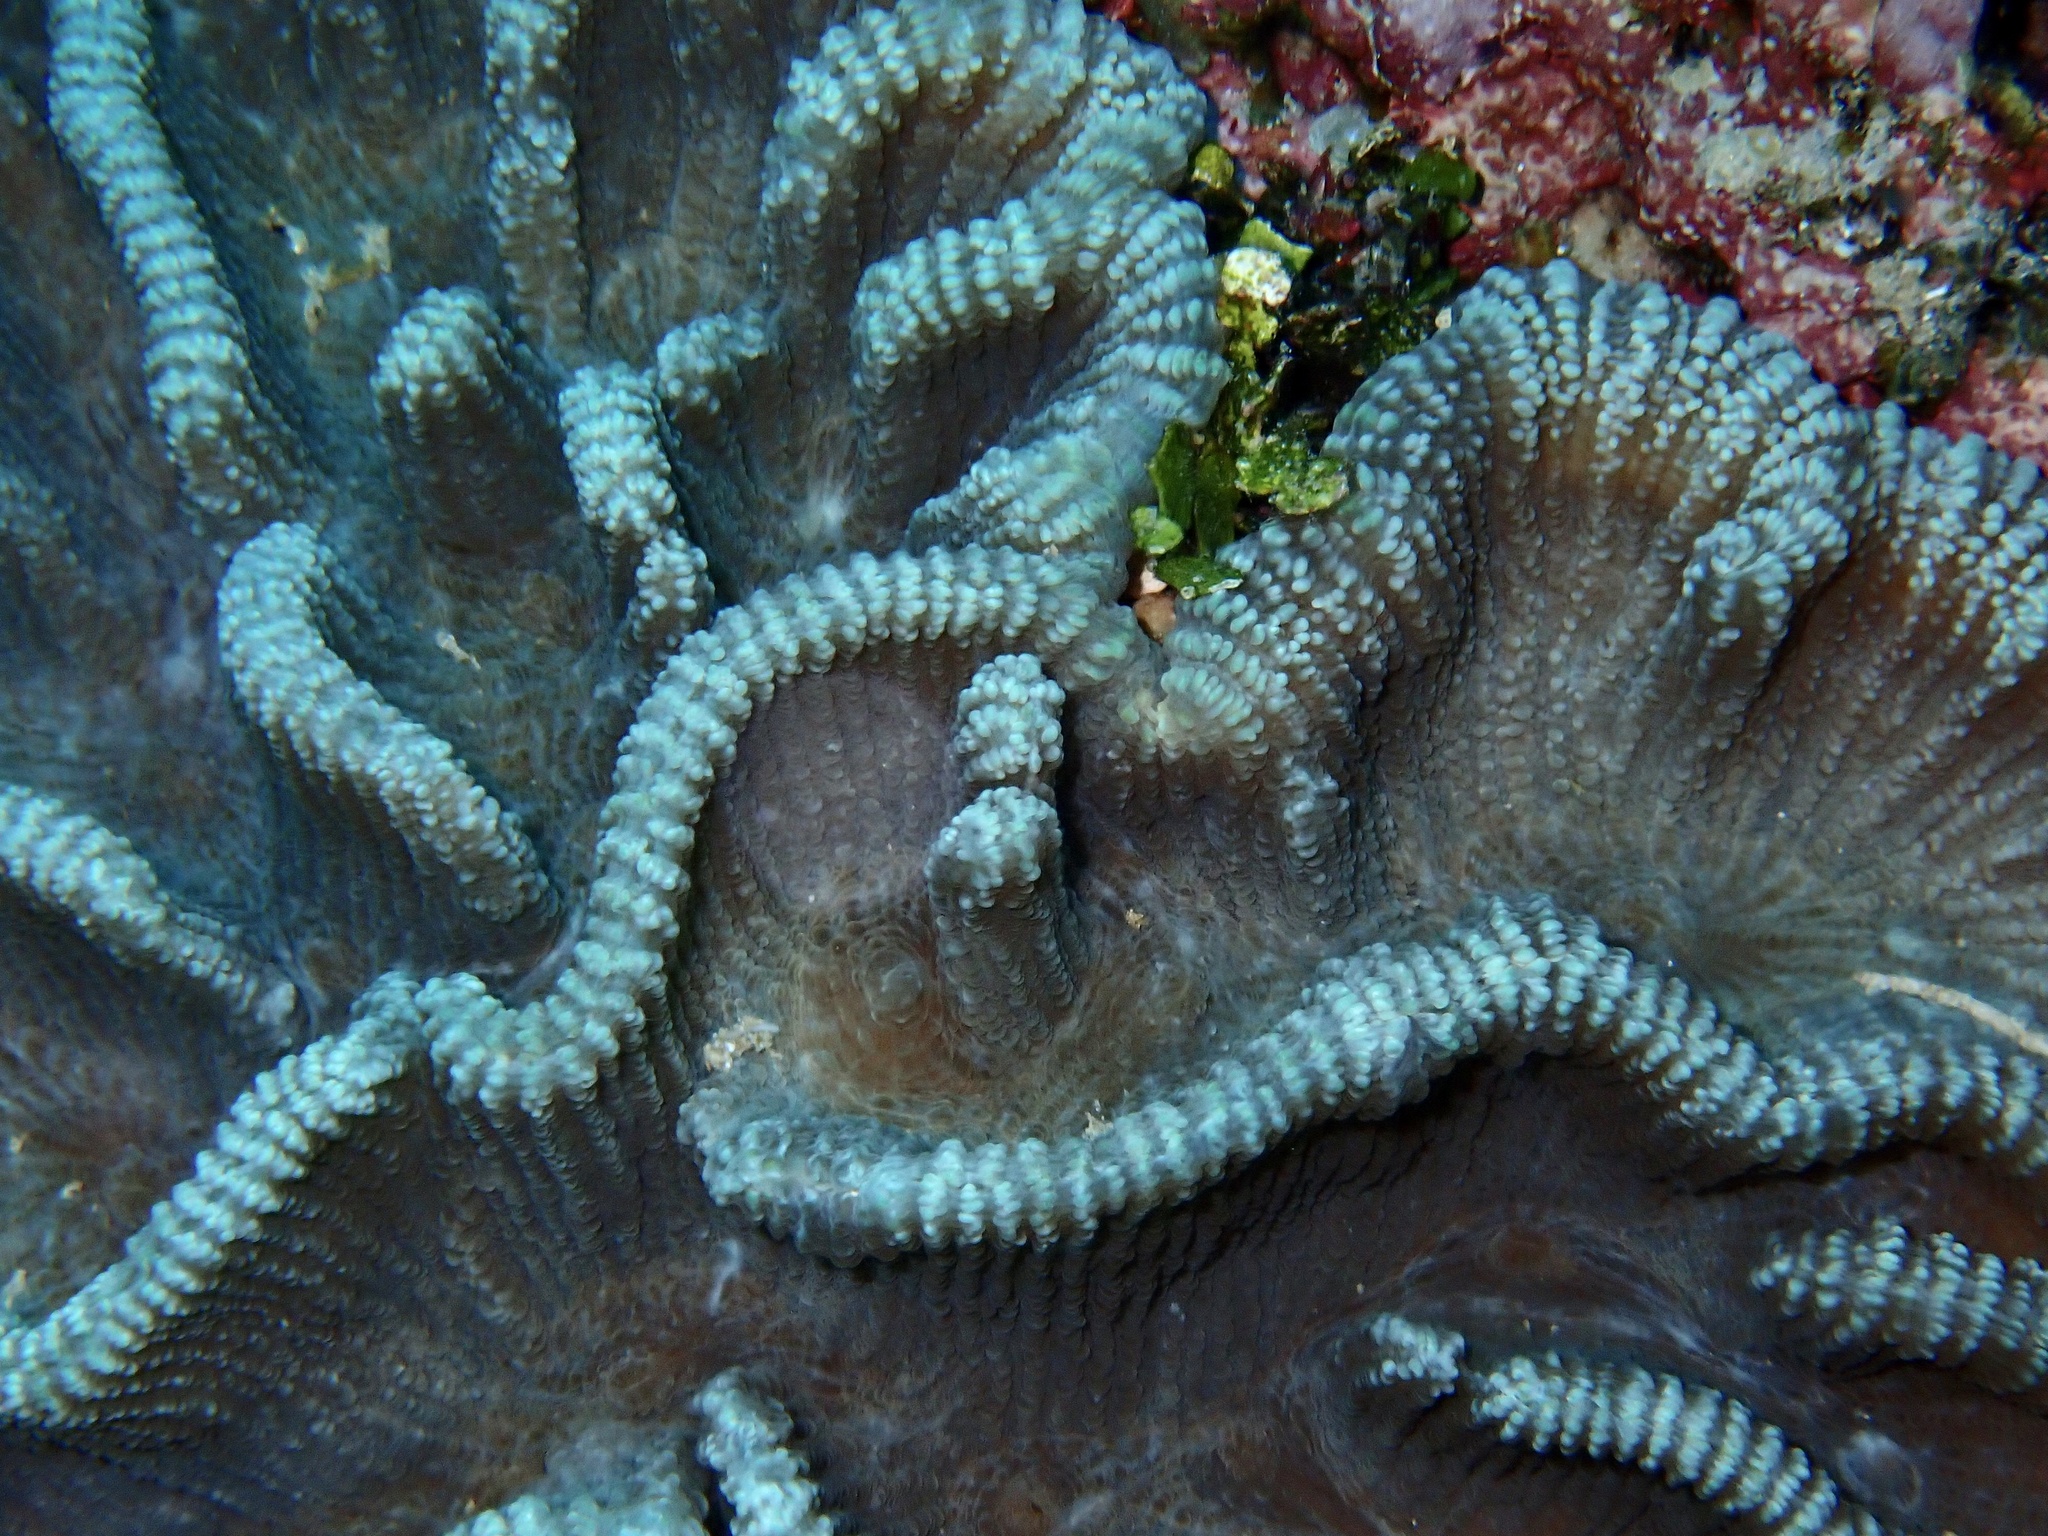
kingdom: Animalia
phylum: Cnidaria
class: Anthozoa
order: Scleractinia
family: Merulinidae
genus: Pectinia
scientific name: Pectinia lactuca
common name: Common lettuce coral
